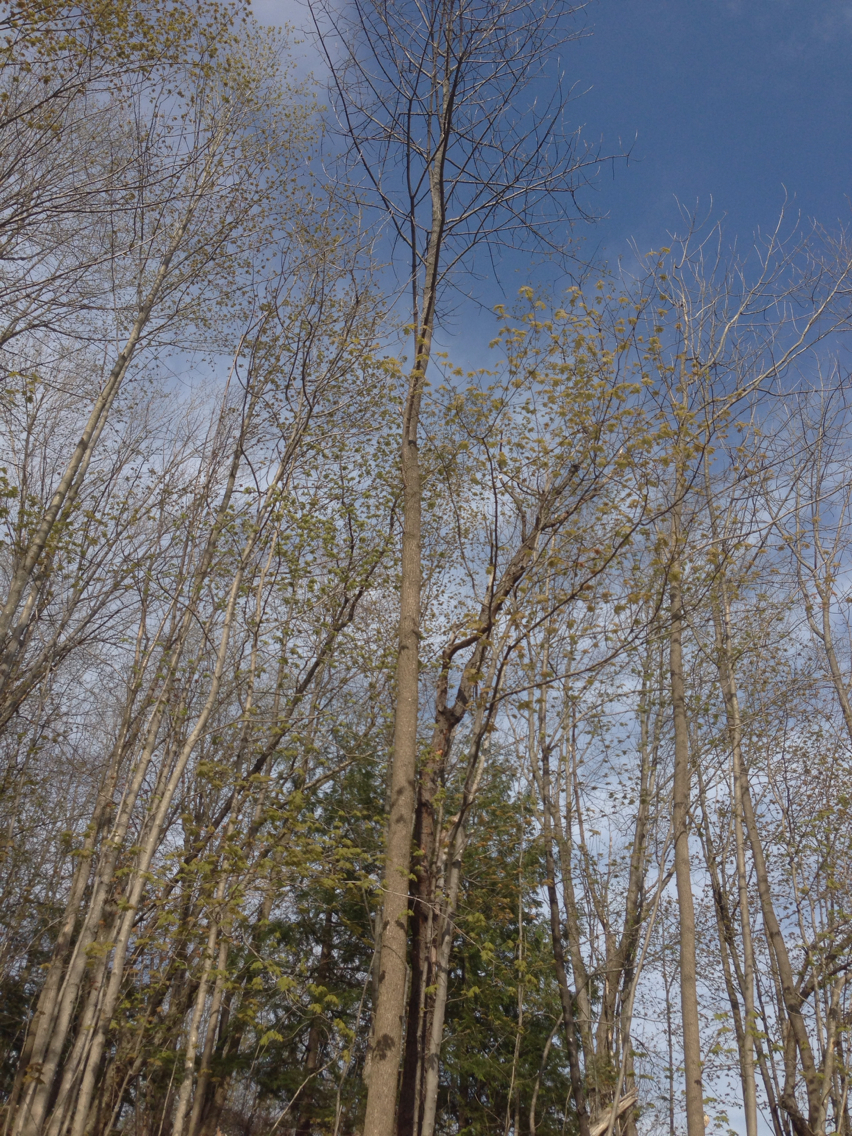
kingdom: Plantae
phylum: Tracheophyta
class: Magnoliopsida
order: Lamiales
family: Oleaceae
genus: Fraxinus
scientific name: Fraxinus americana
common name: White ash
